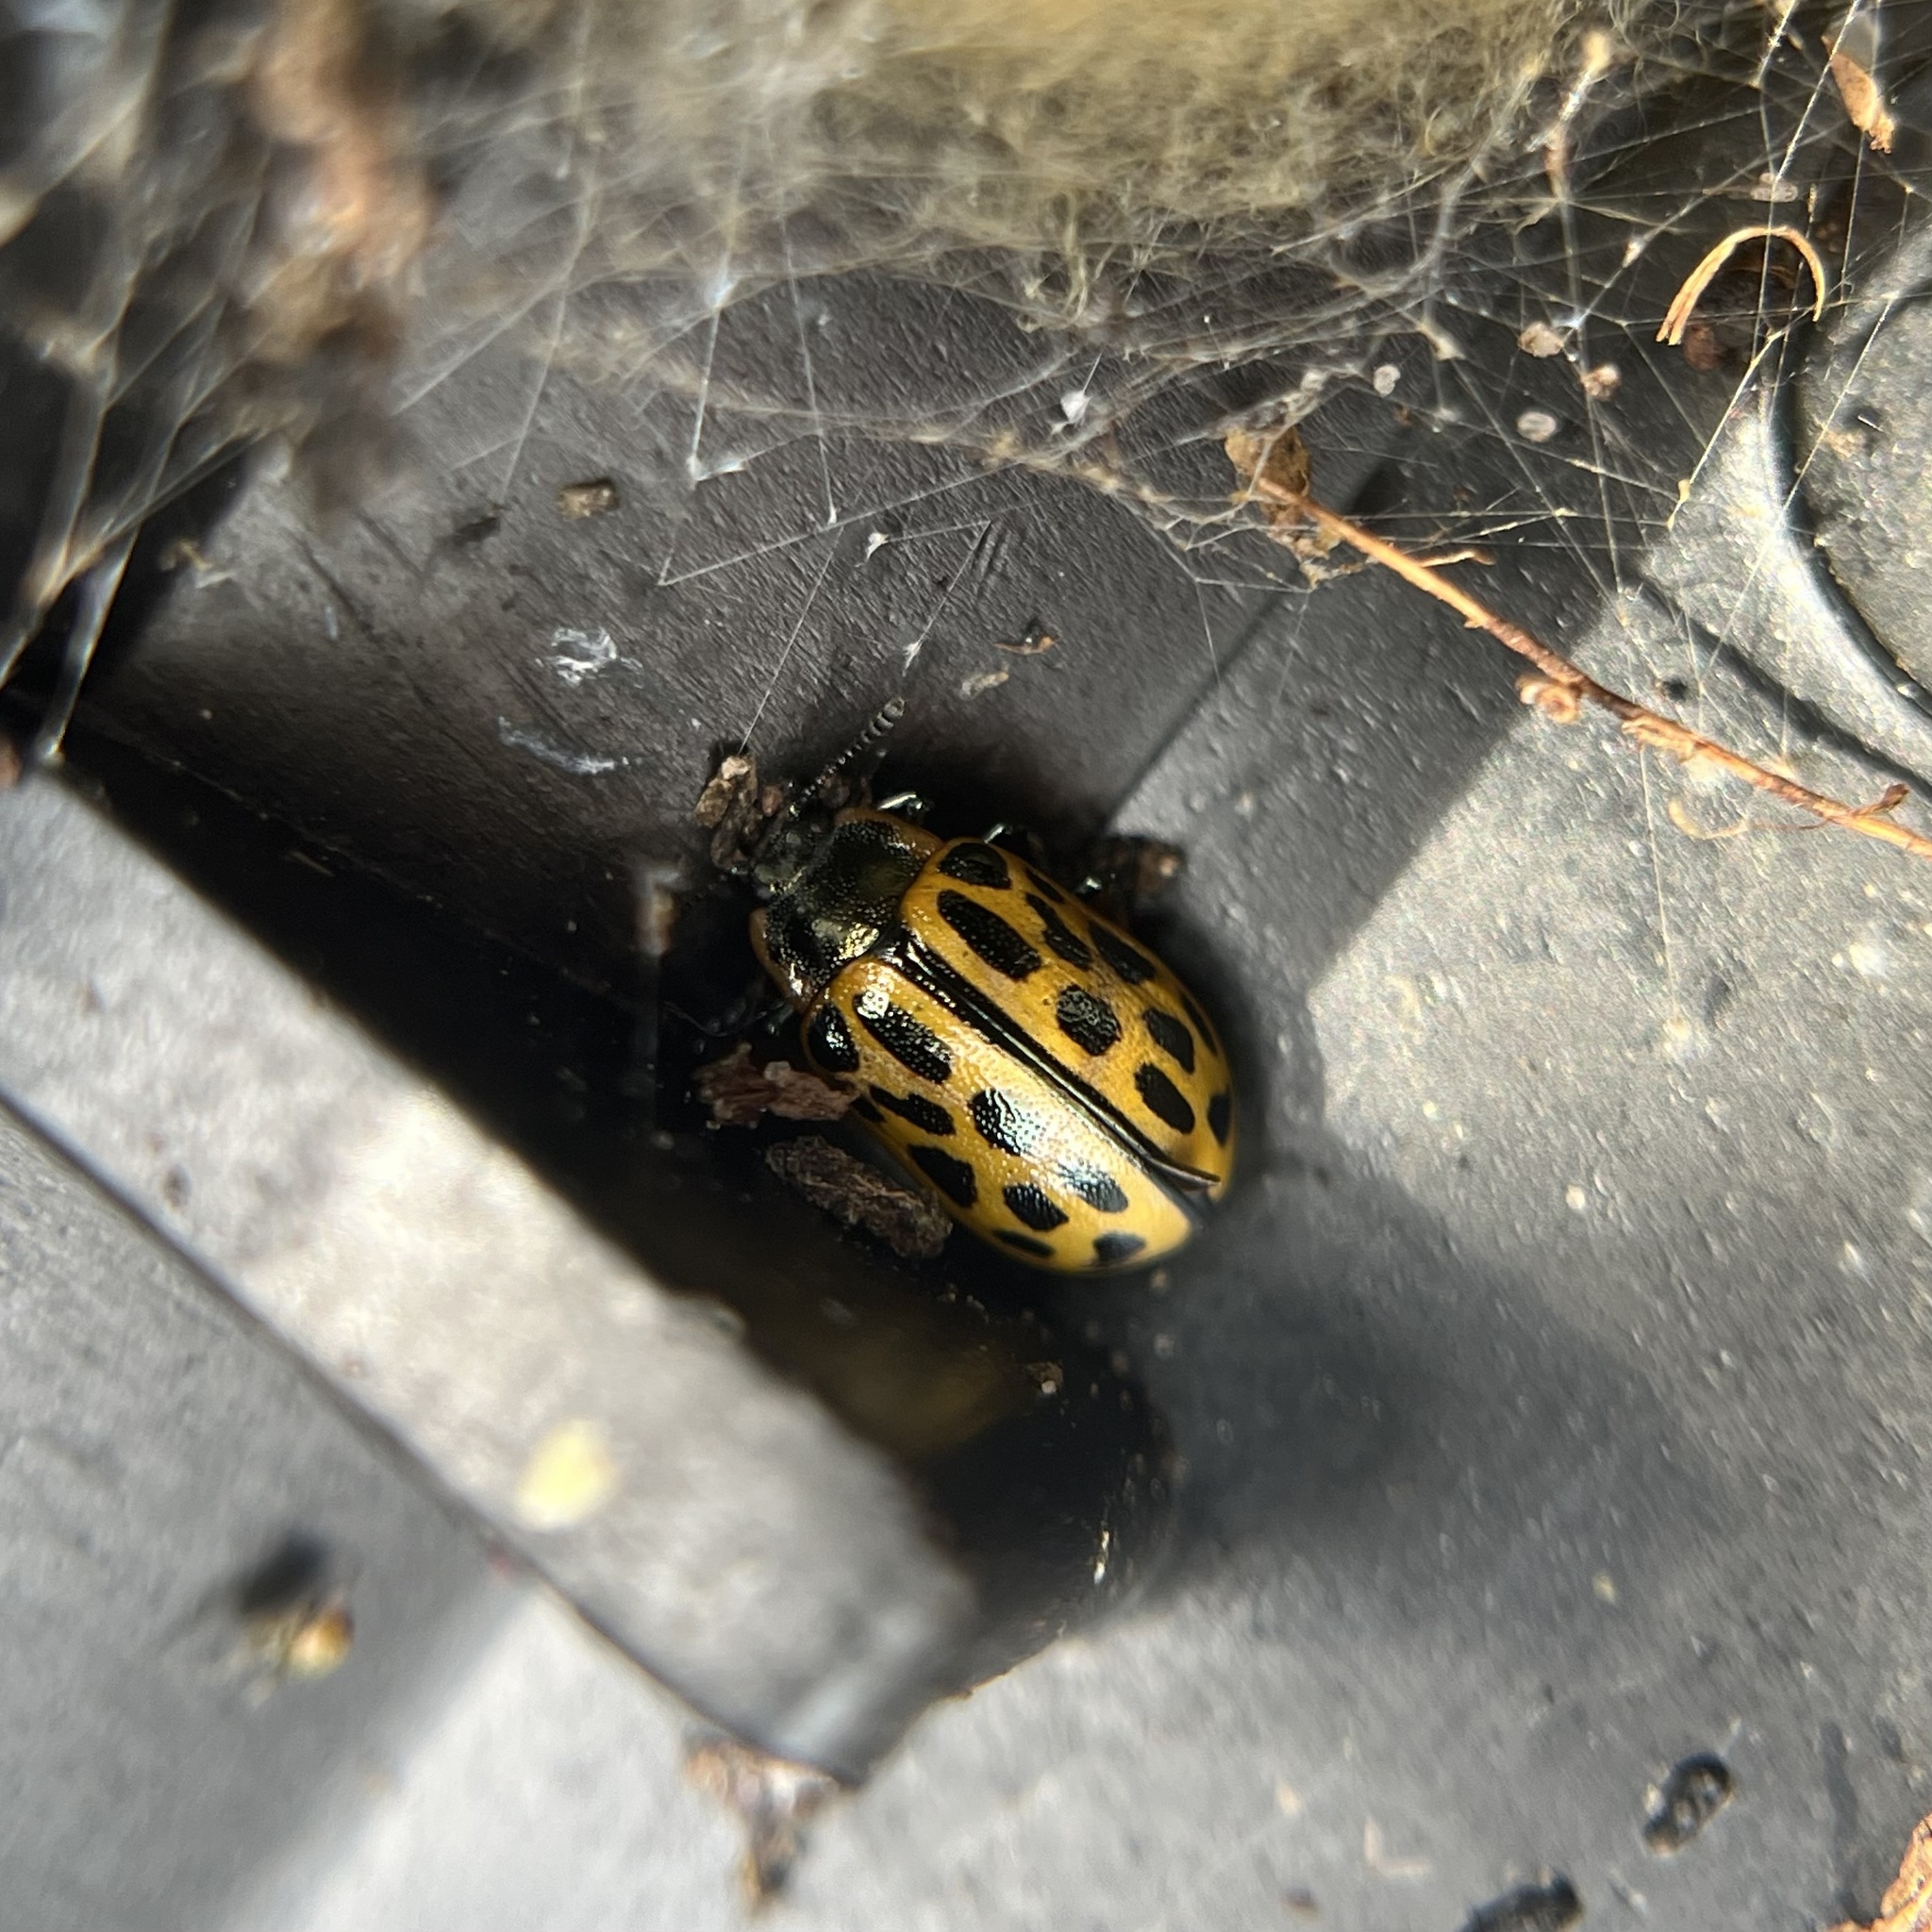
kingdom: Animalia
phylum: Arthropoda
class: Insecta
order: Coleoptera
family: Chrysomelidae
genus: Chrysomela
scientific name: Chrysomela vigintipunctata
